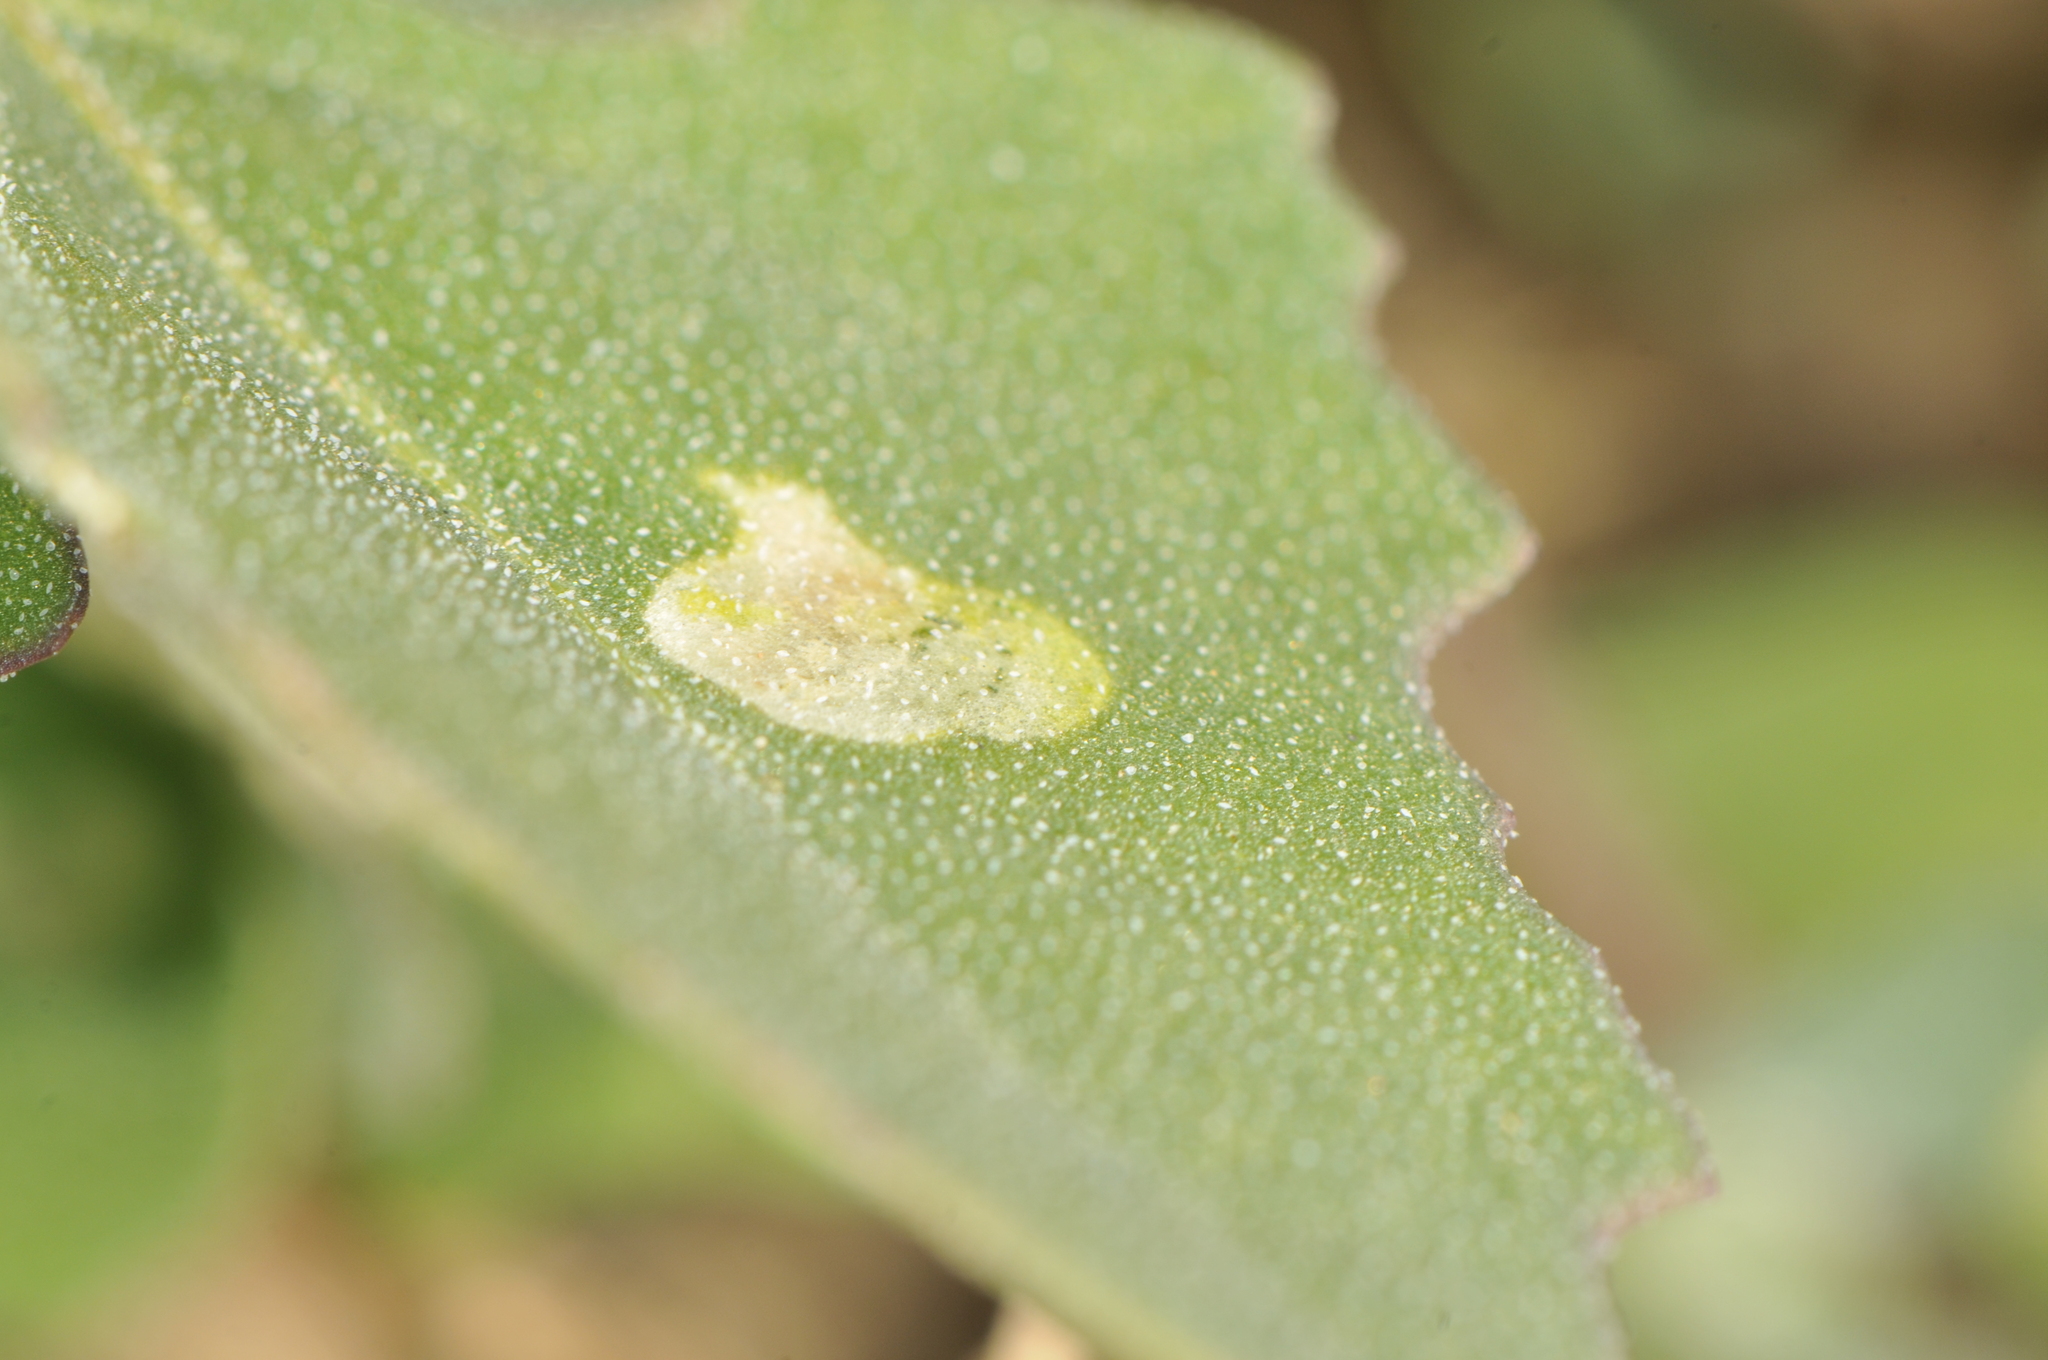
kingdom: Animalia
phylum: Arthropoda
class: Insecta
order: Diptera
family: Anthomyiidae
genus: Pegomya
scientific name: Pegomya
